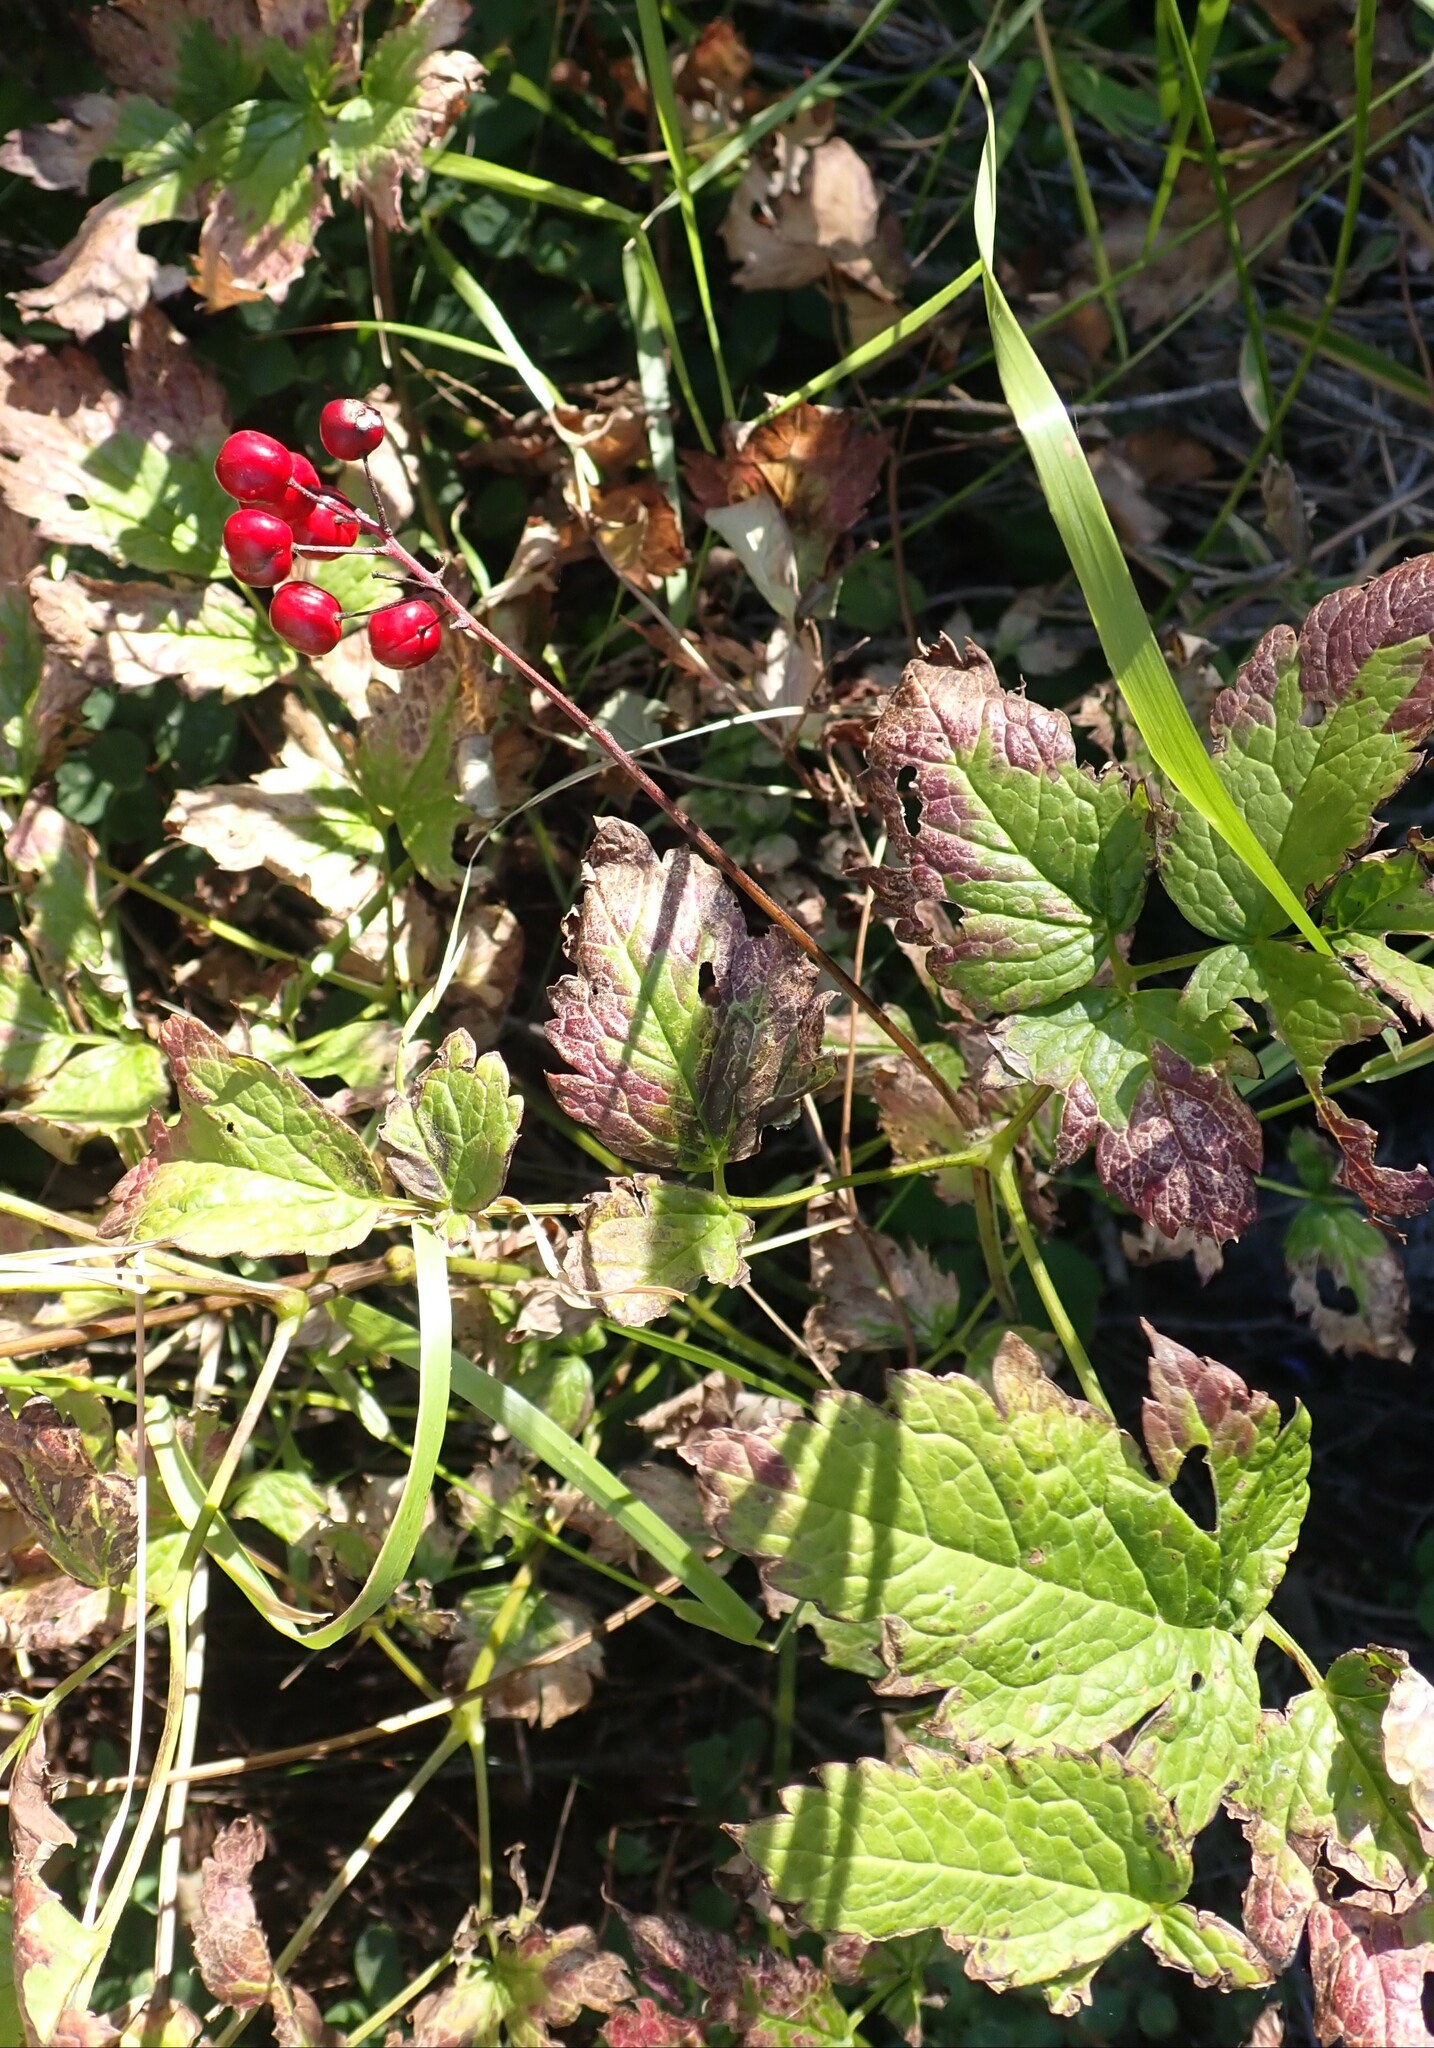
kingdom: Plantae
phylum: Tracheophyta
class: Magnoliopsida
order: Ranunculales
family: Ranunculaceae
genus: Actaea
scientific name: Actaea rubra
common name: Red baneberry
